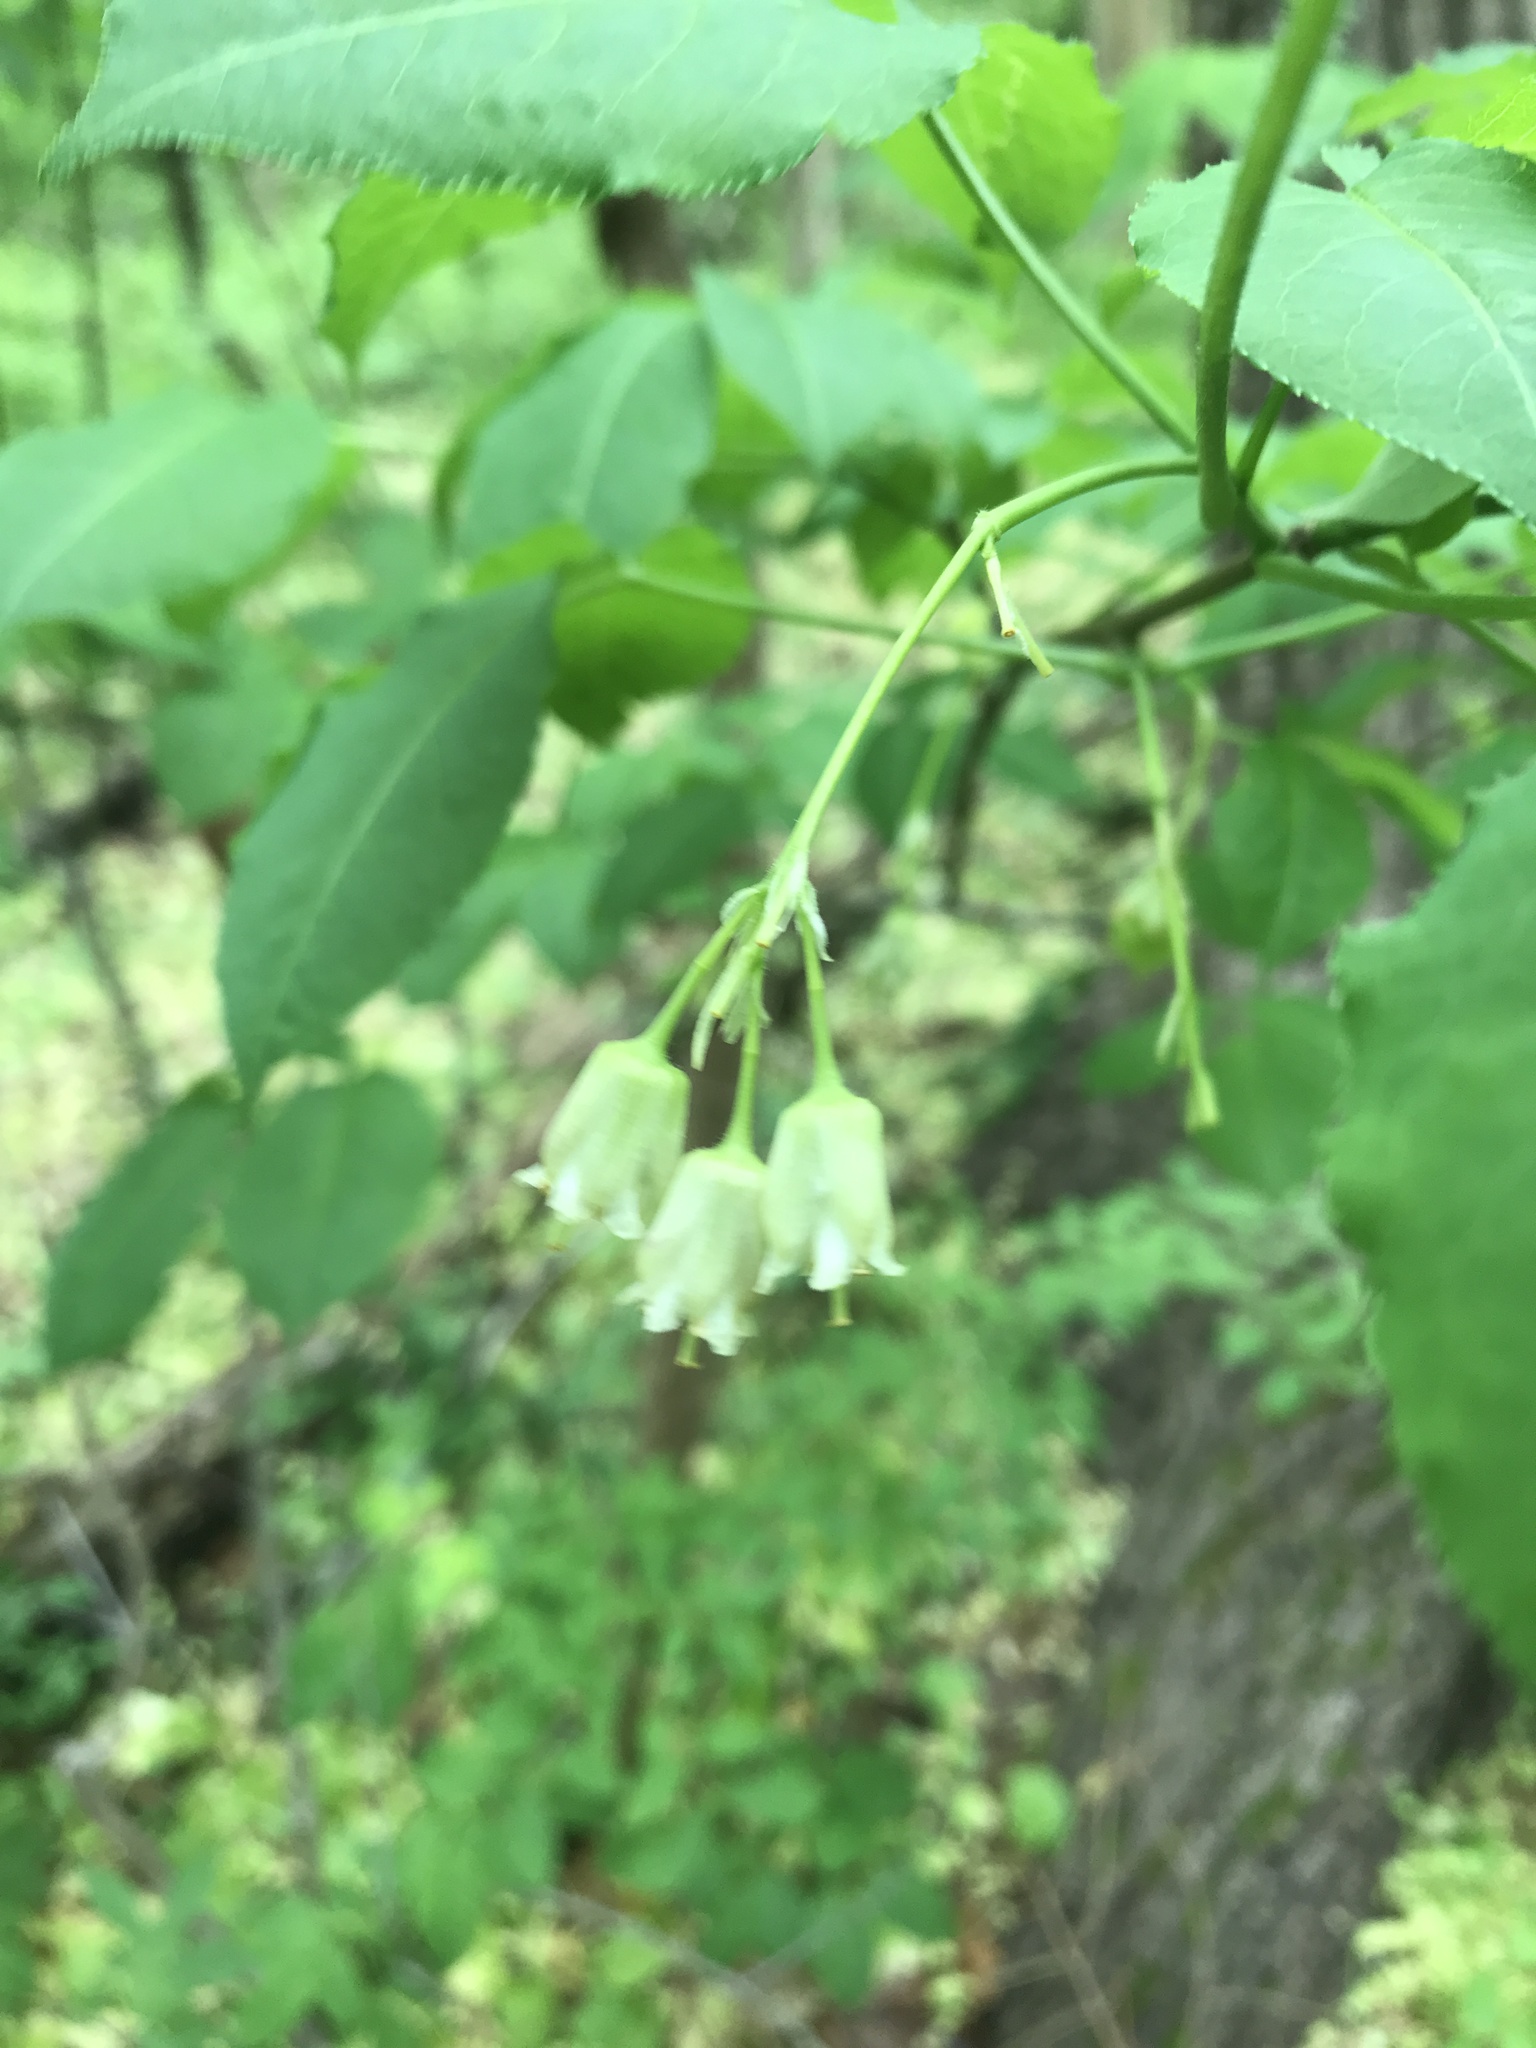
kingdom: Plantae
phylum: Tracheophyta
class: Magnoliopsida
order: Crossosomatales
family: Staphyleaceae
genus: Staphylea
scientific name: Staphylea trifolia
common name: American bladdernut
